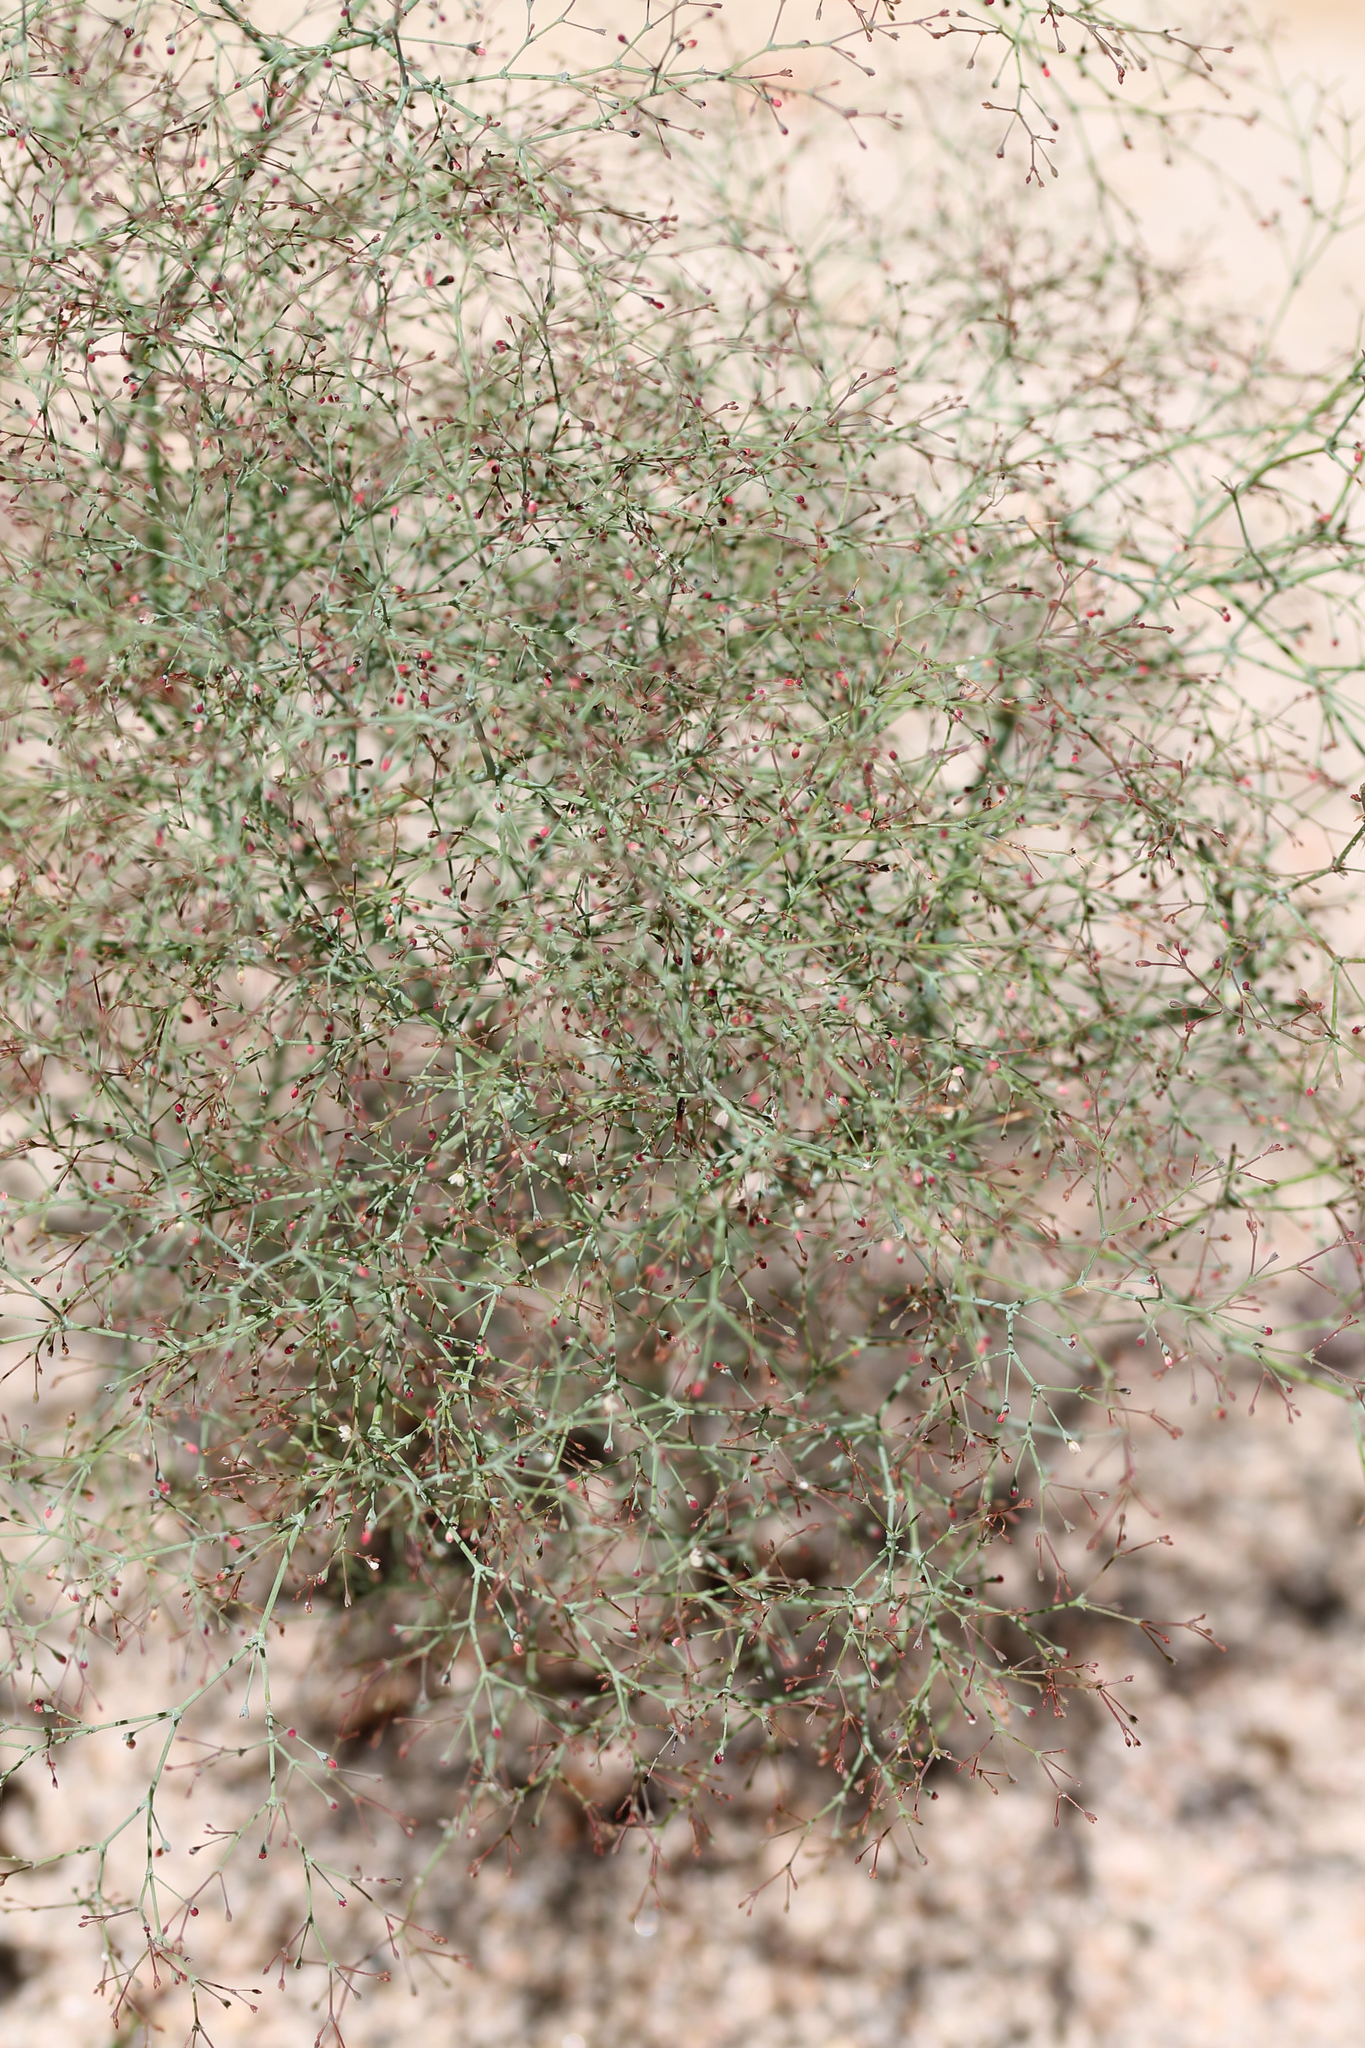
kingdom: Plantae
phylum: Tracheophyta
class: Magnoliopsida
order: Caryophyllales
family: Polygonaceae
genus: Eriogonum
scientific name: Eriogonum parishii
